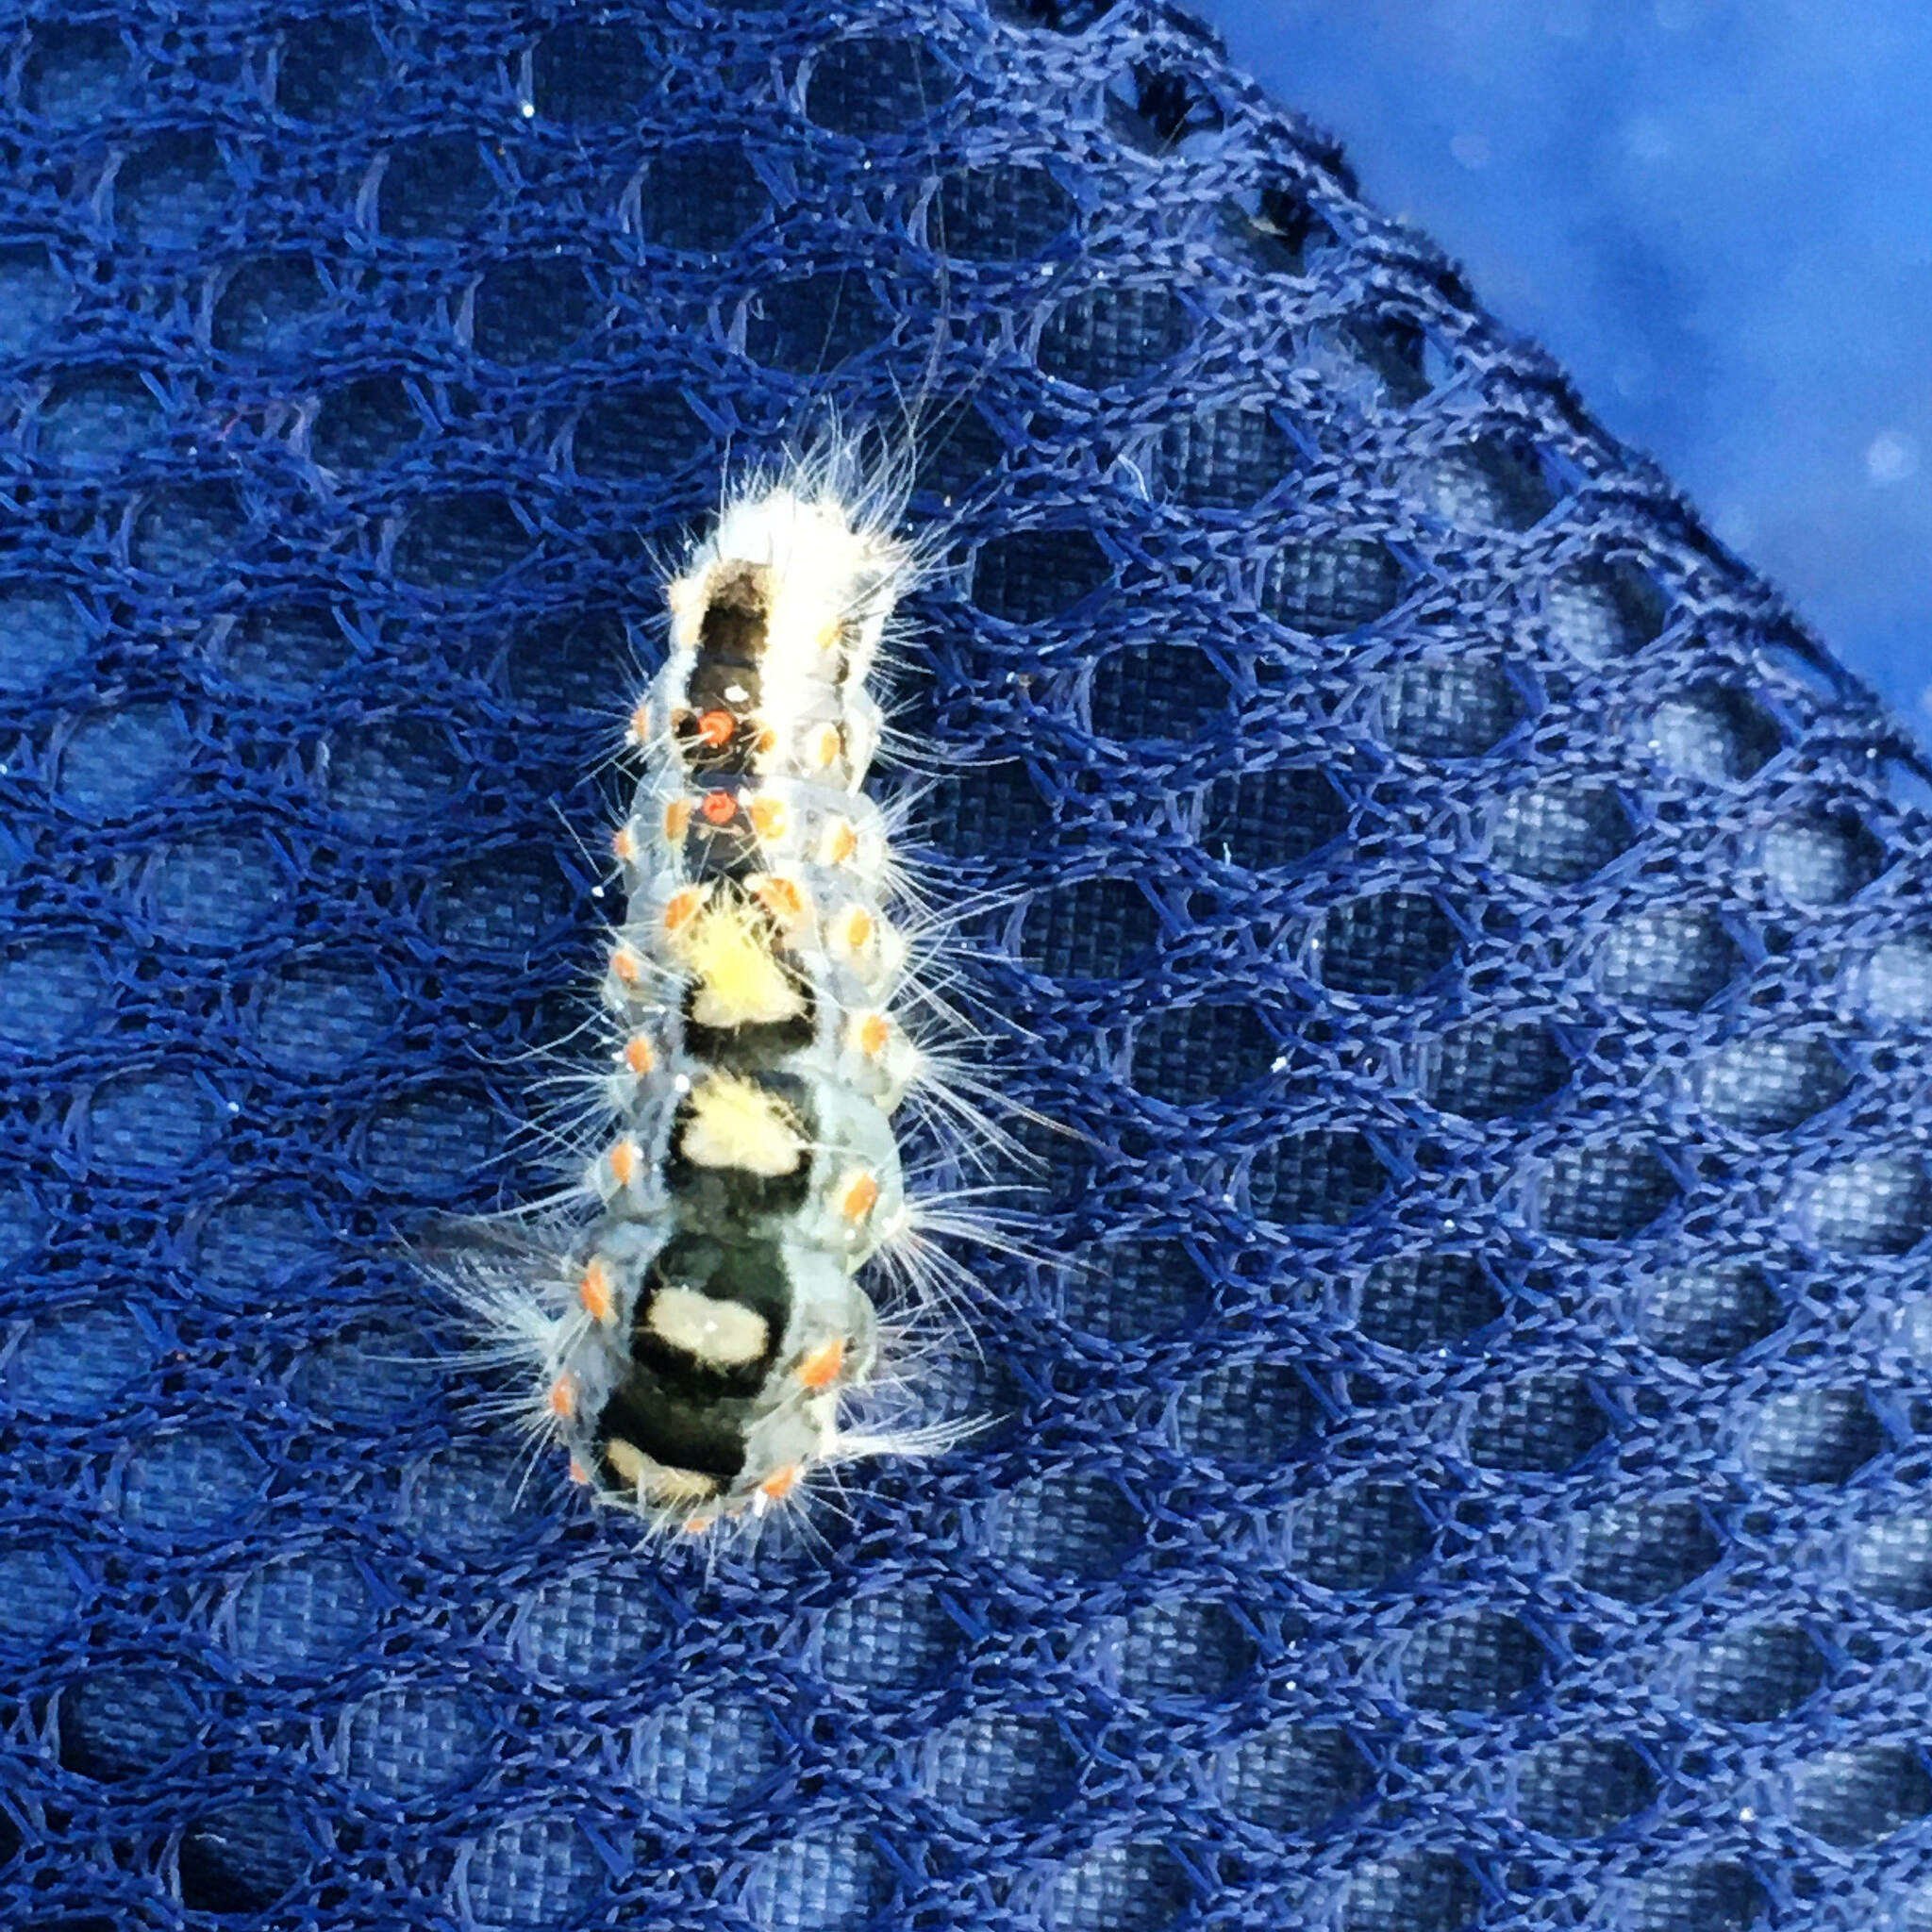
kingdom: Animalia
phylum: Arthropoda
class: Insecta
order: Lepidoptera
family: Erebidae
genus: Orgyia
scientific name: Orgyia antiqua
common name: Vapourer
